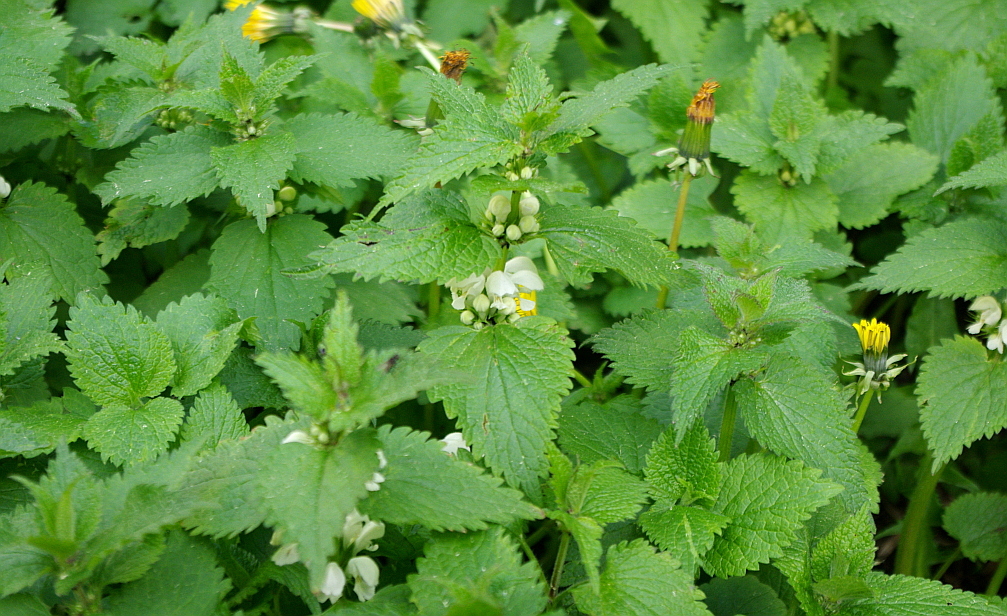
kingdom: Plantae
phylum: Tracheophyta
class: Magnoliopsida
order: Lamiales
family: Lamiaceae
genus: Lamium
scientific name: Lamium album
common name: White dead-nettle
